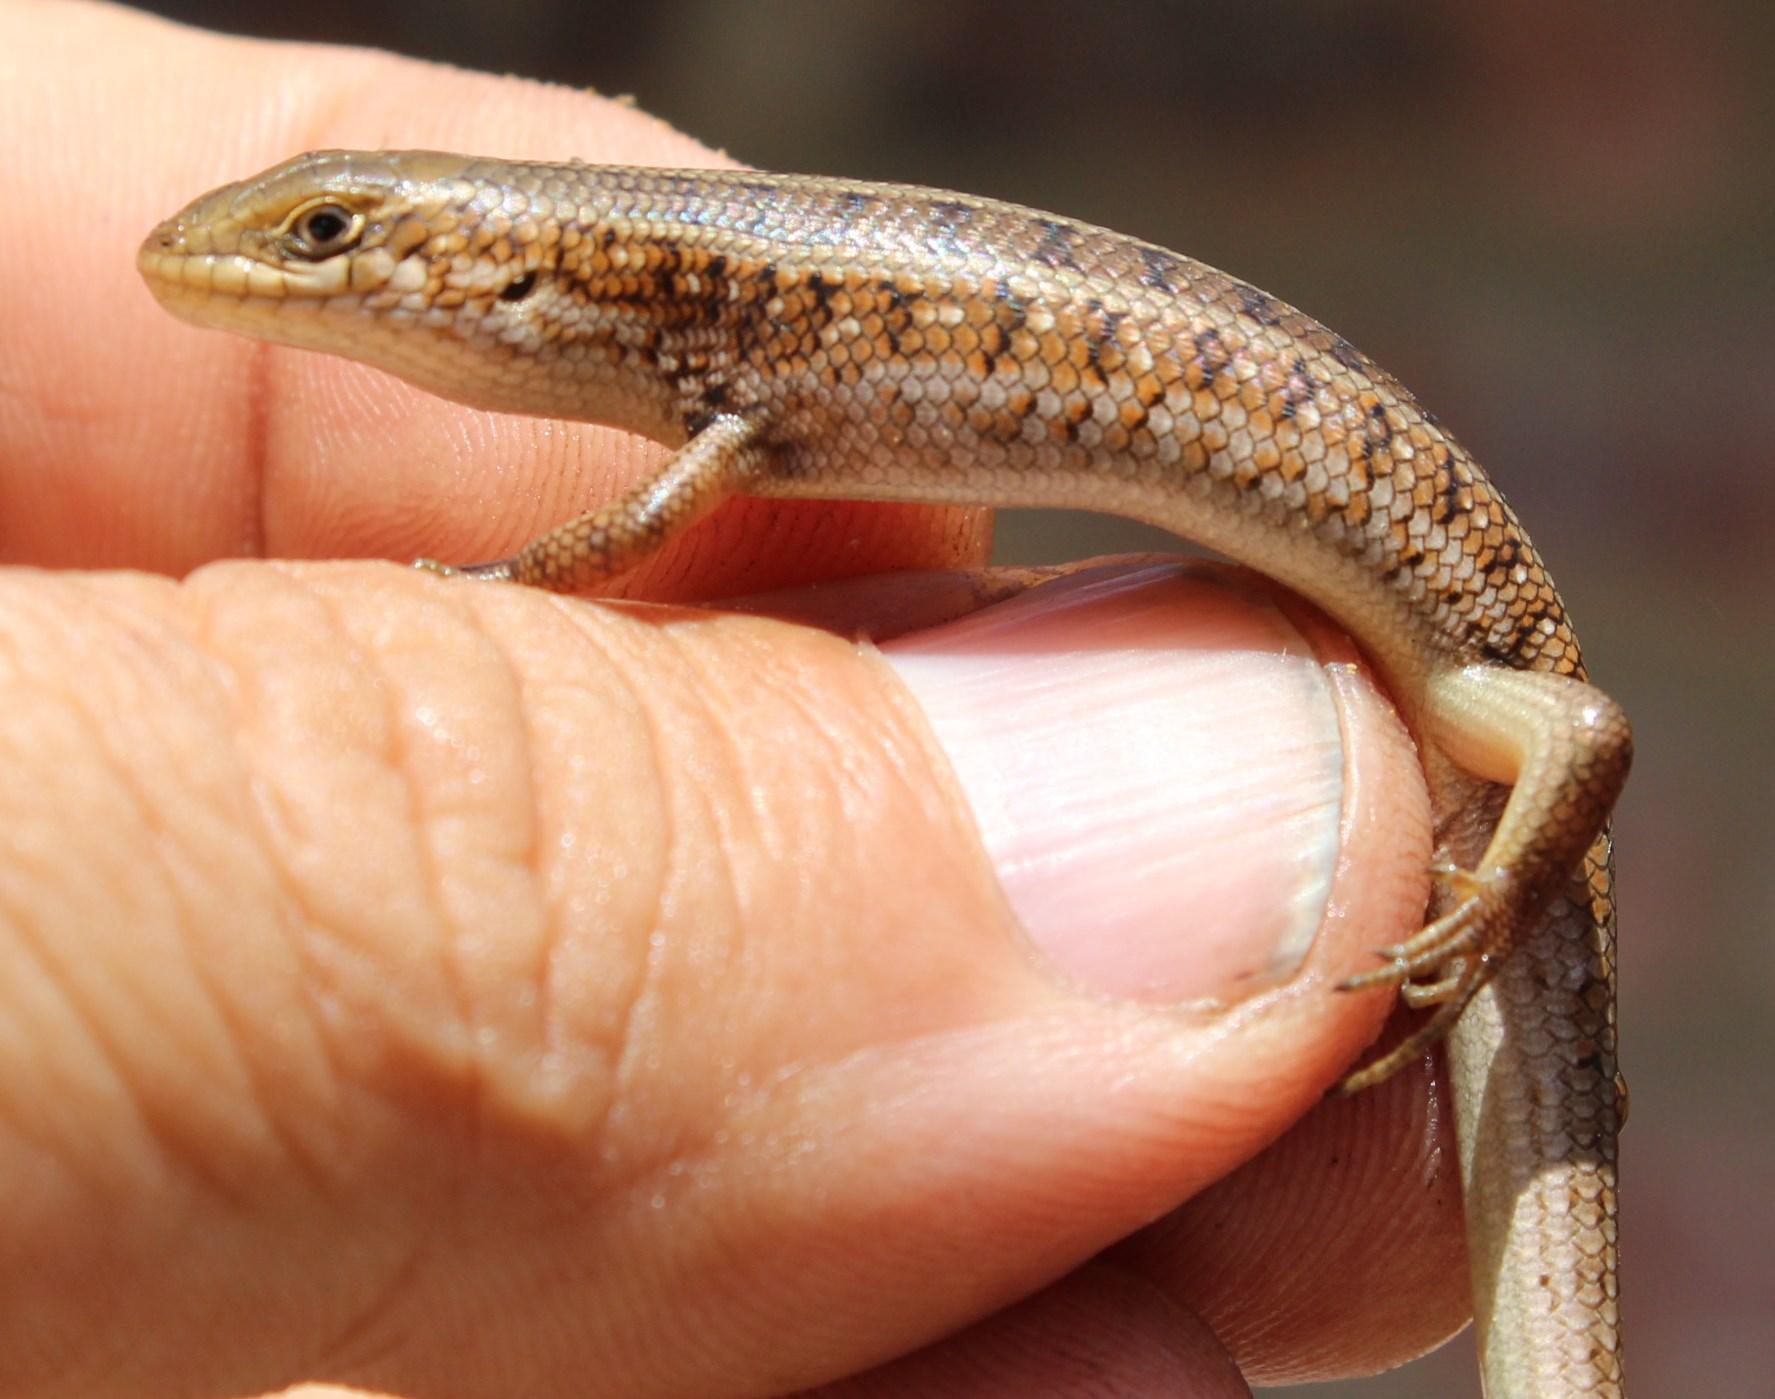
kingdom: Animalia
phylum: Chordata
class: Squamata
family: Scincidae
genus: Trachylepis
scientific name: Trachylepis capensis
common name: Cape skink
